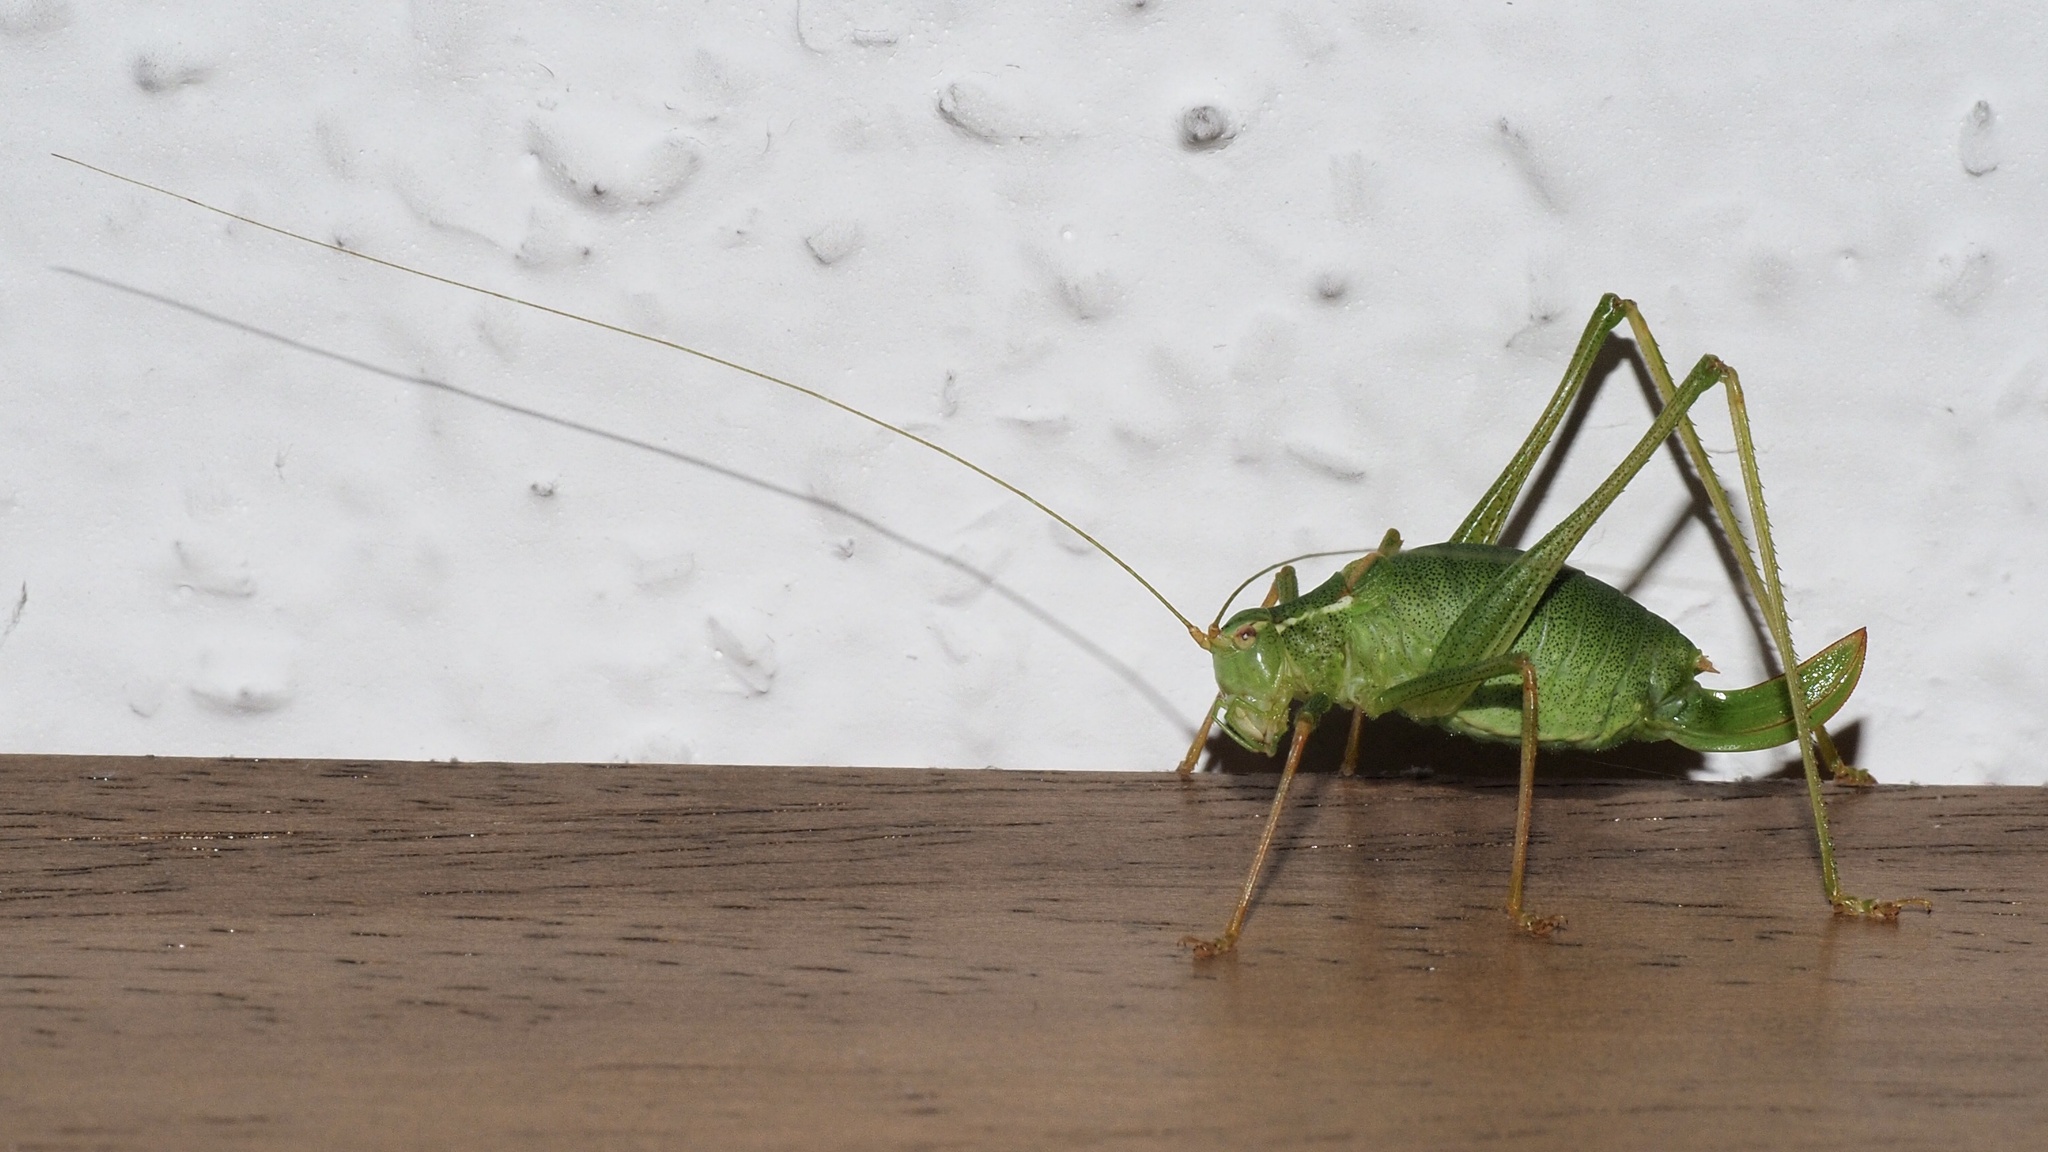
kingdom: Animalia
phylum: Arthropoda
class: Insecta
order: Orthoptera
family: Tettigoniidae
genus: Leptophyes
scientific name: Leptophyes punctatissima
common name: Speckled bush-cricket
